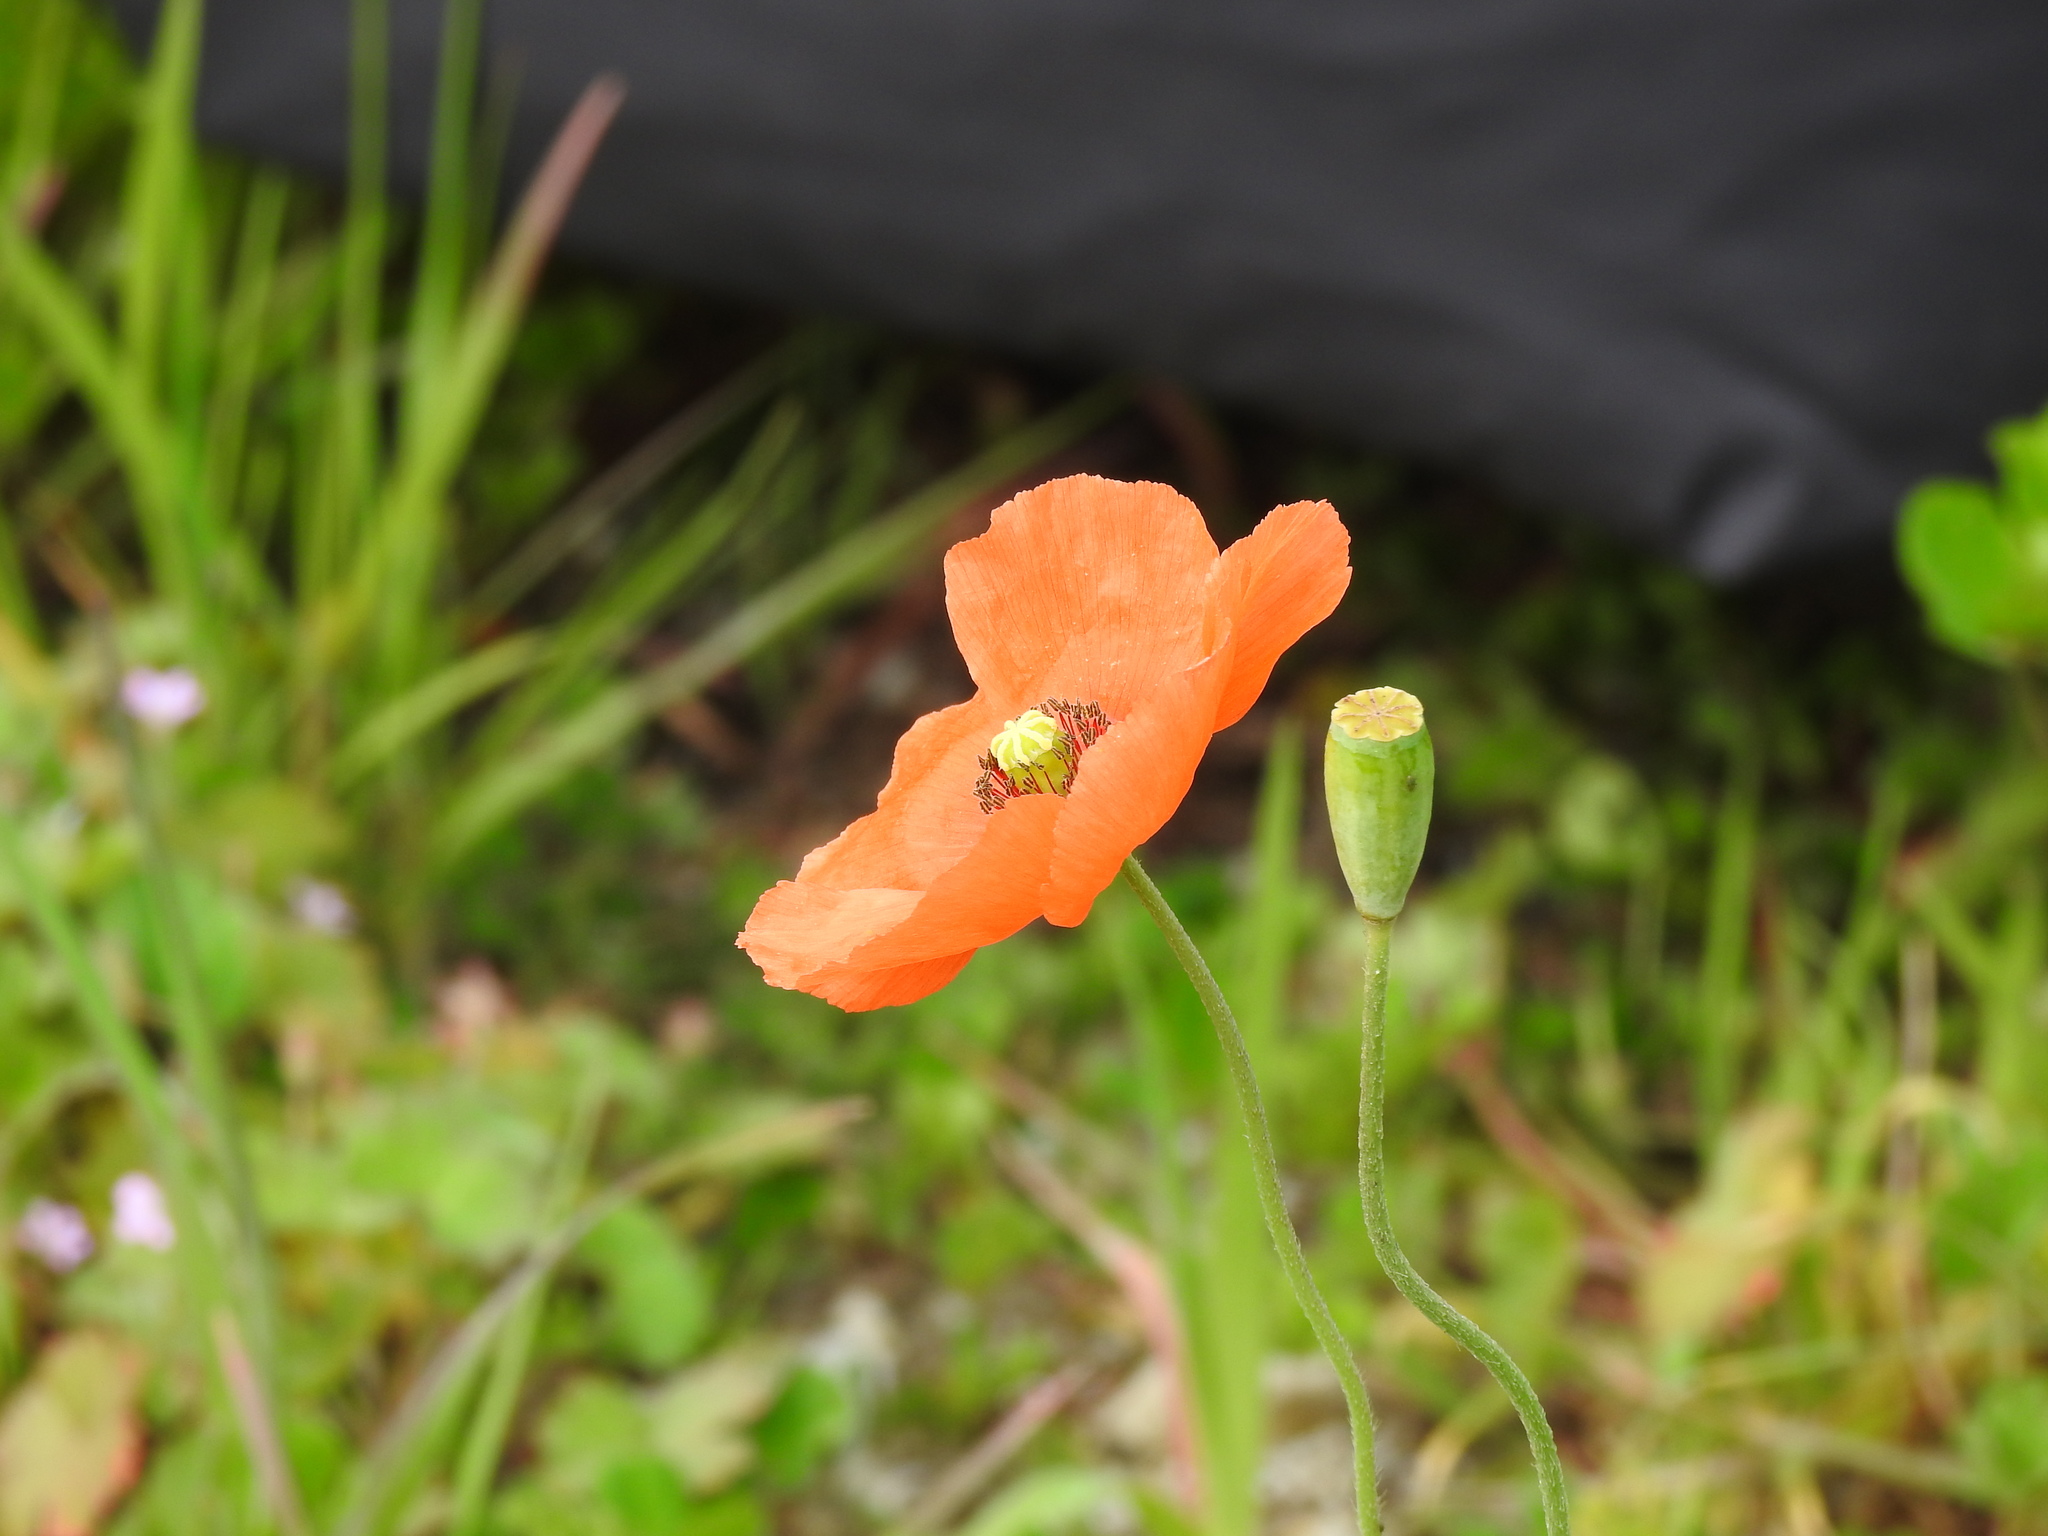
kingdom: Plantae
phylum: Tracheophyta
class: Magnoliopsida
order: Ranunculales
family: Papaveraceae
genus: Papaver
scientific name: Papaver dubium
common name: Long-headed poppy
